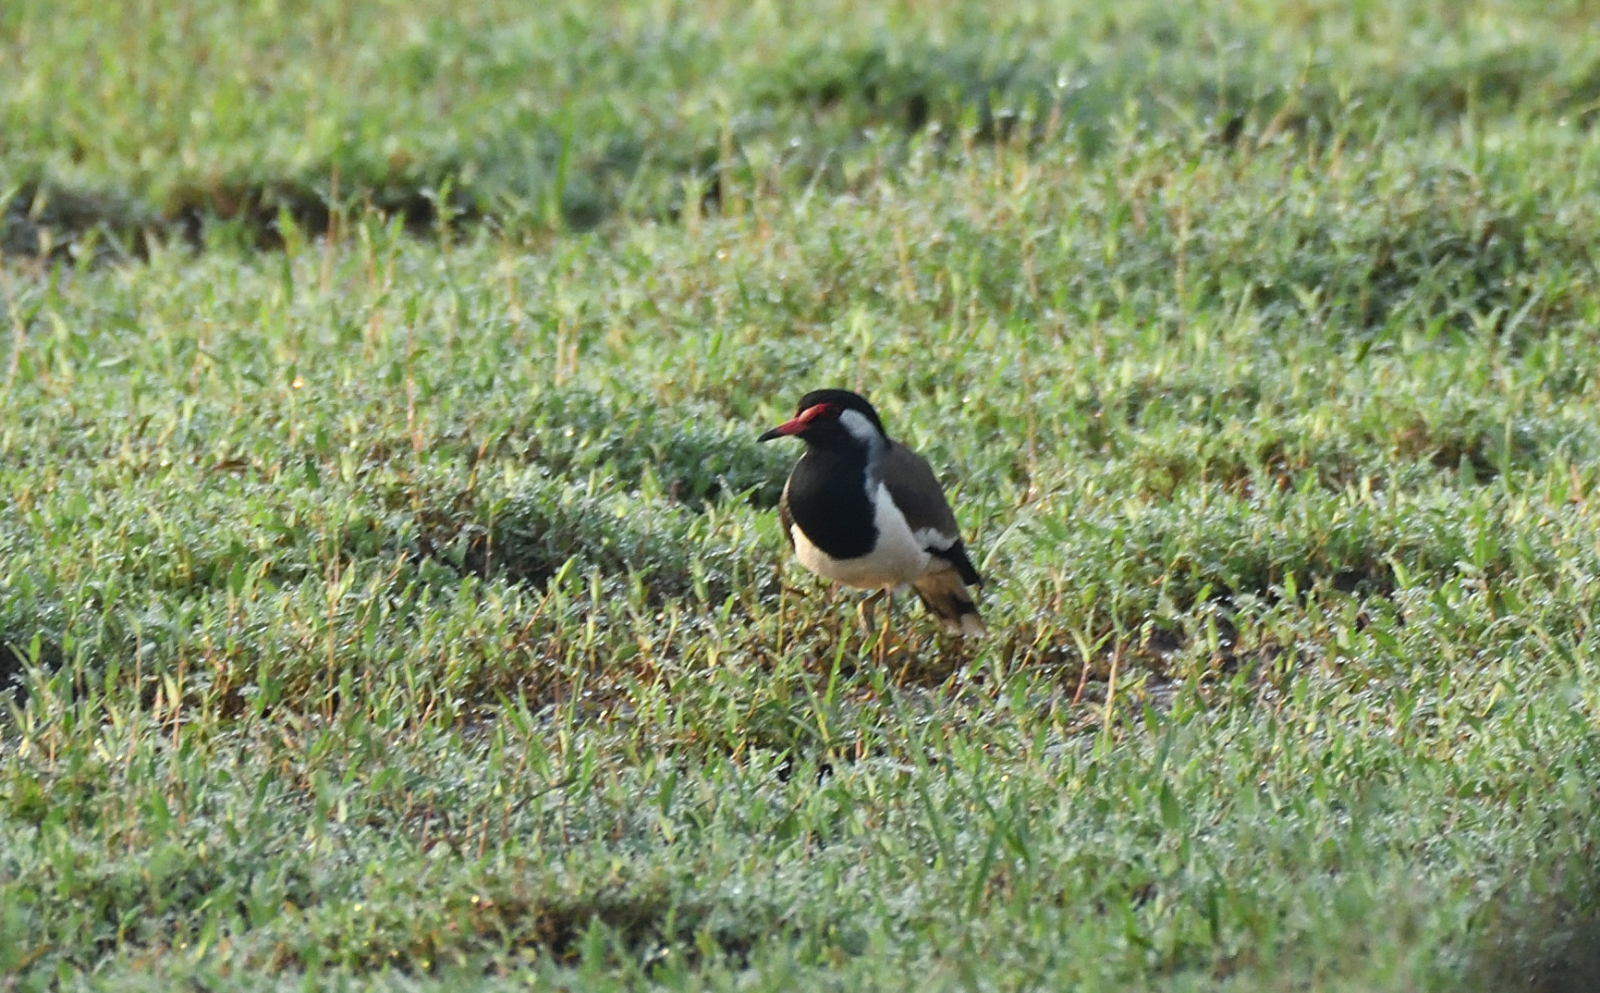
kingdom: Animalia
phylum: Chordata
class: Aves
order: Charadriiformes
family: Charadriidae
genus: Vanellus
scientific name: Vanellus indicus
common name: Red-wattled lapwing
